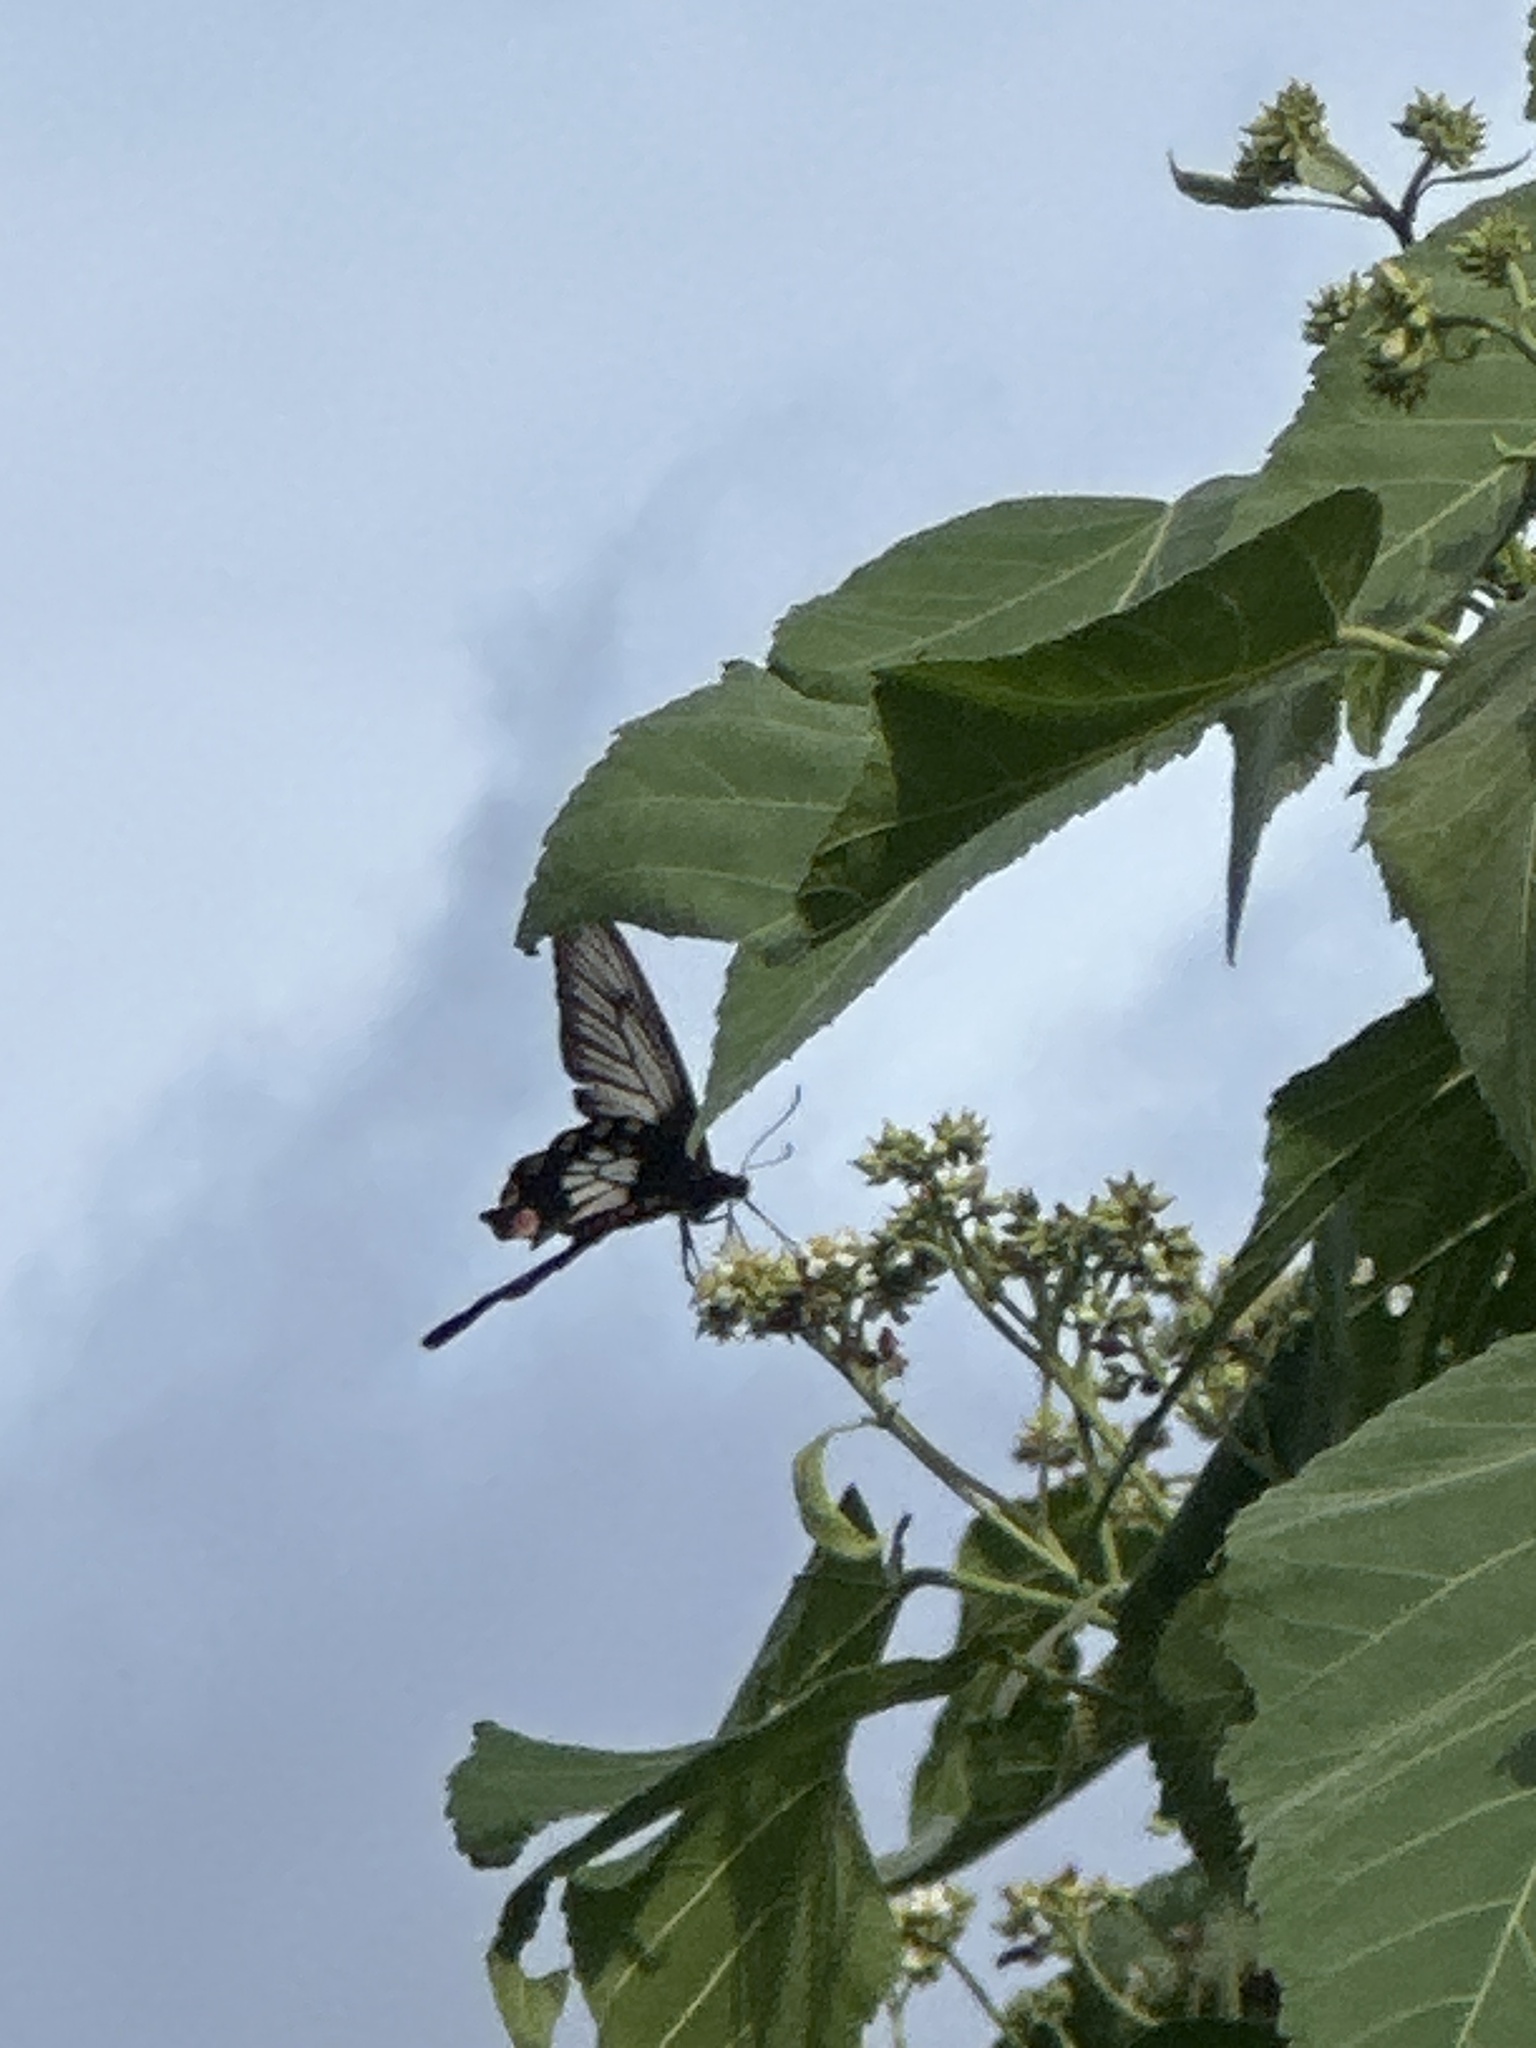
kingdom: Animalia
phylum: Arthropoda
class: Insecta
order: Lepidoptera
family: Papilionidae
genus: Pachliopta
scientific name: Pachliopta polyphontes
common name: Sulawesi rose
